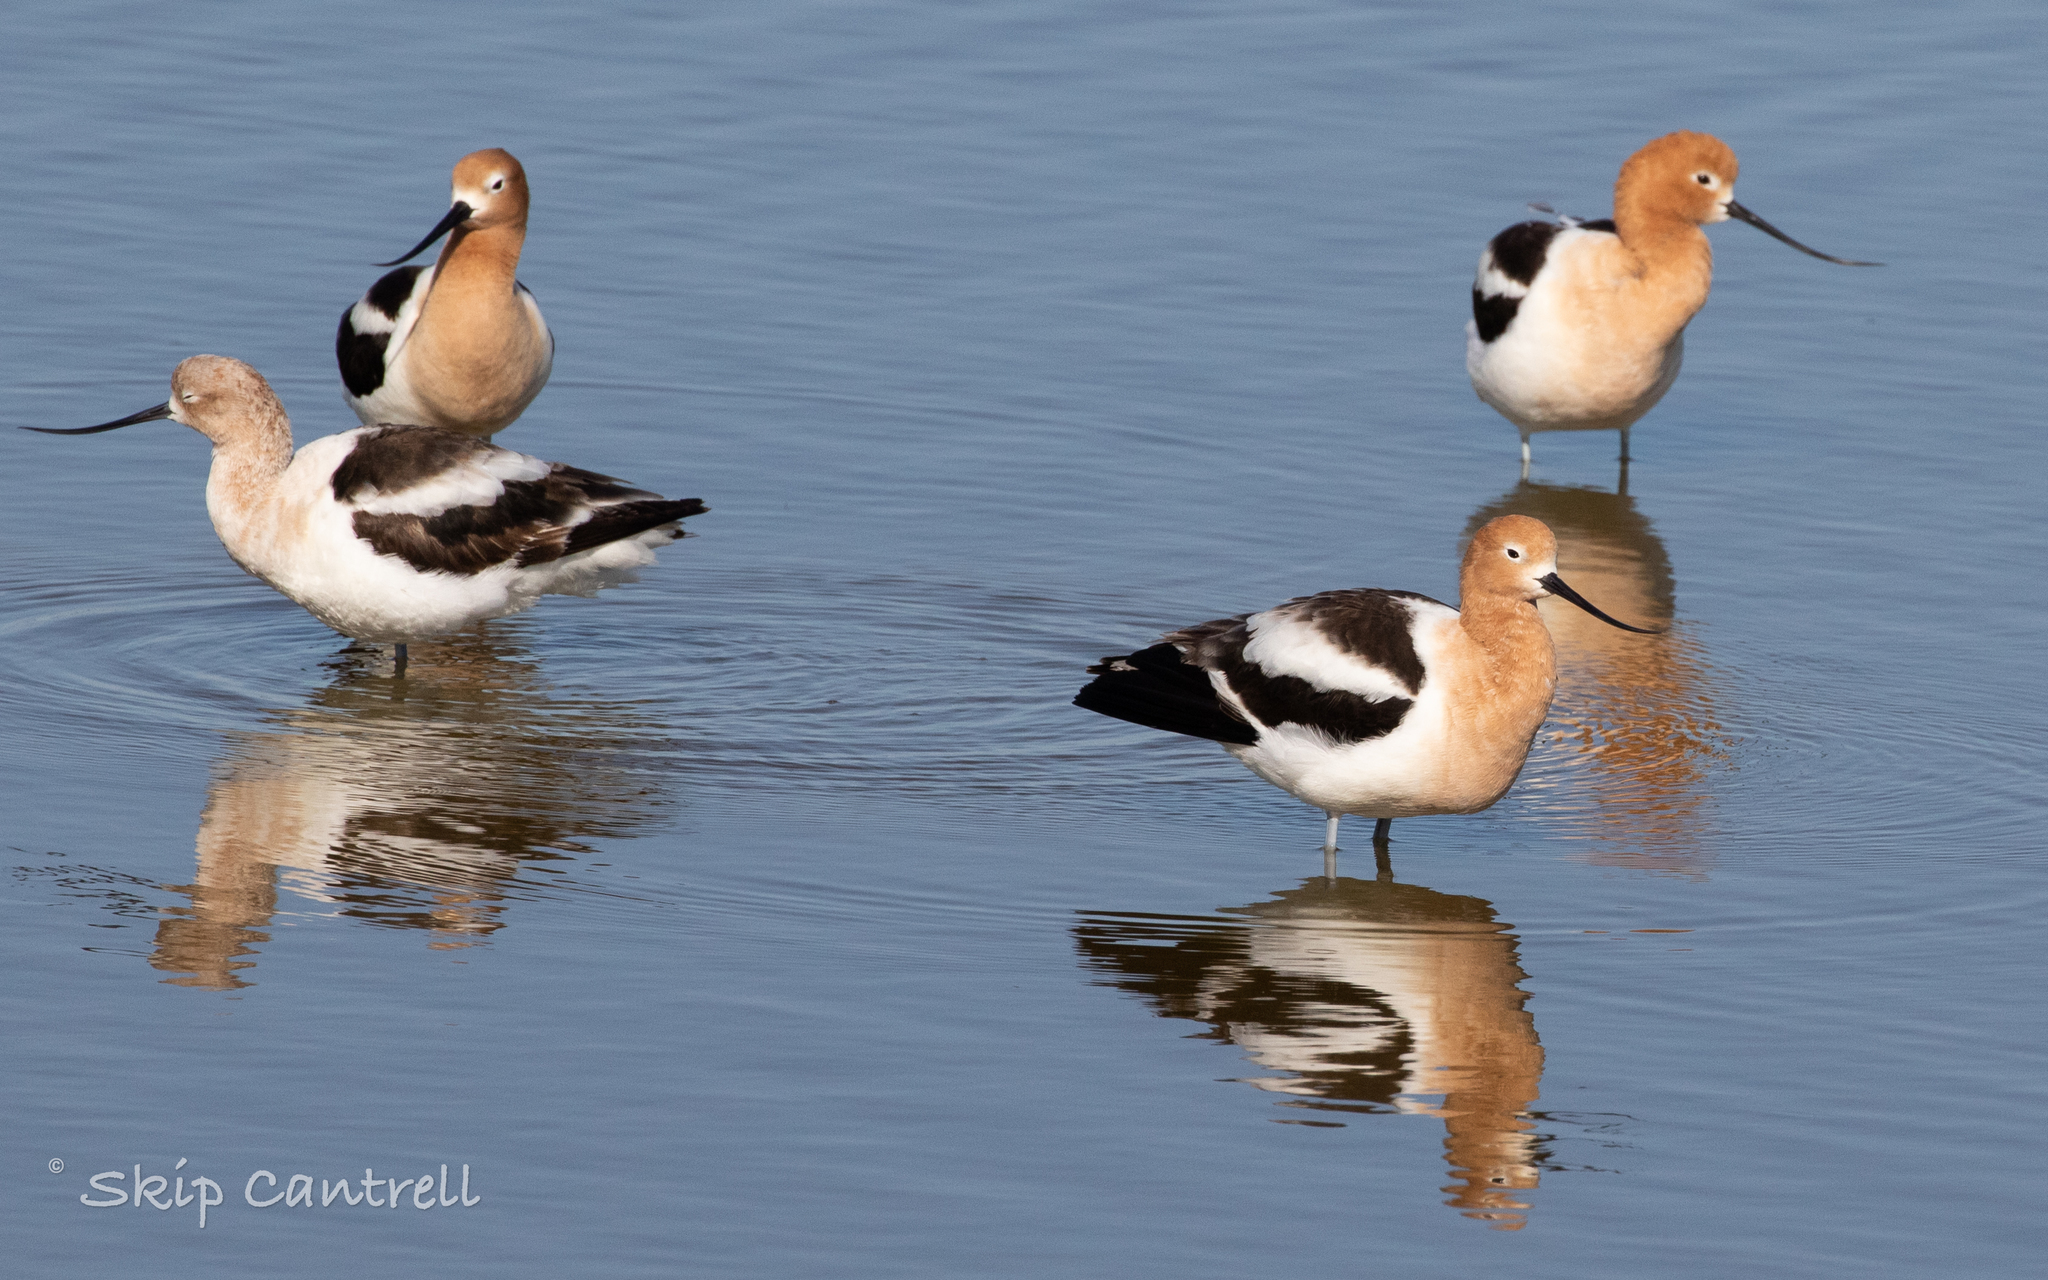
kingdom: Animalia
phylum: Chordata
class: Aves
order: Charadriiformes
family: Recurvirostridae
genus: Recurvirostra
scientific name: Recurvirostra americana
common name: American avocet
